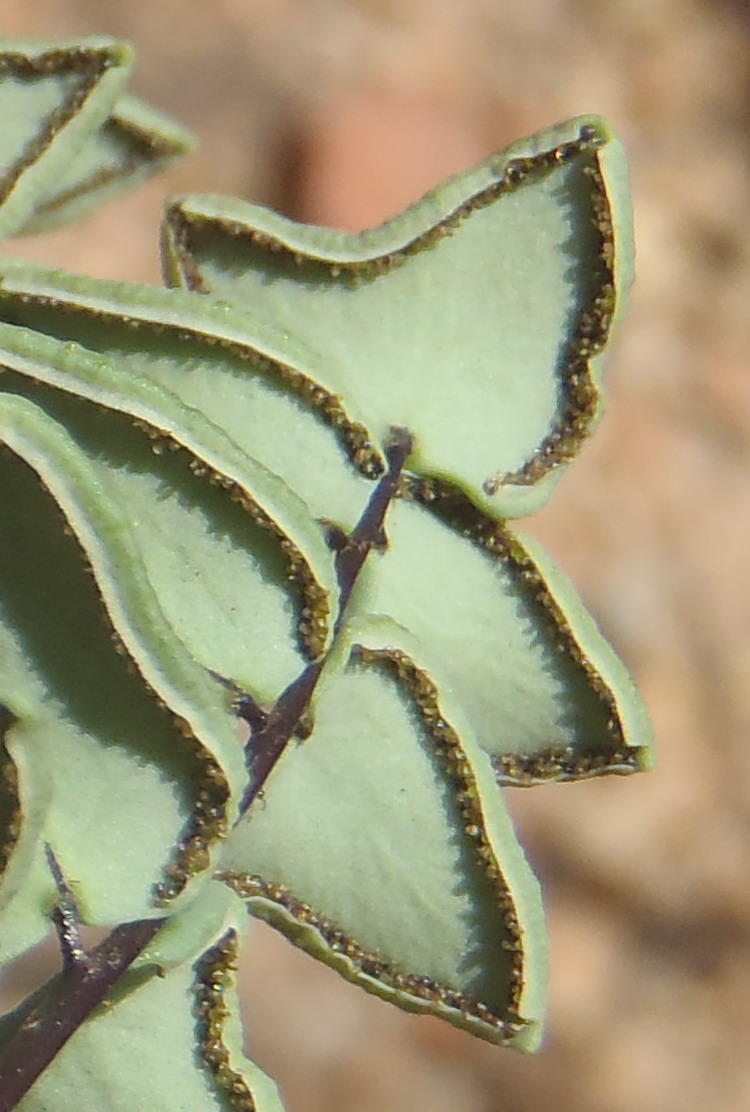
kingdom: Plantae
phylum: Tracheophyta
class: Polypodiopsida
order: Polypodiales
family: Pteridaceae
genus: Pellaea
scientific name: Pellaea leucomelas
